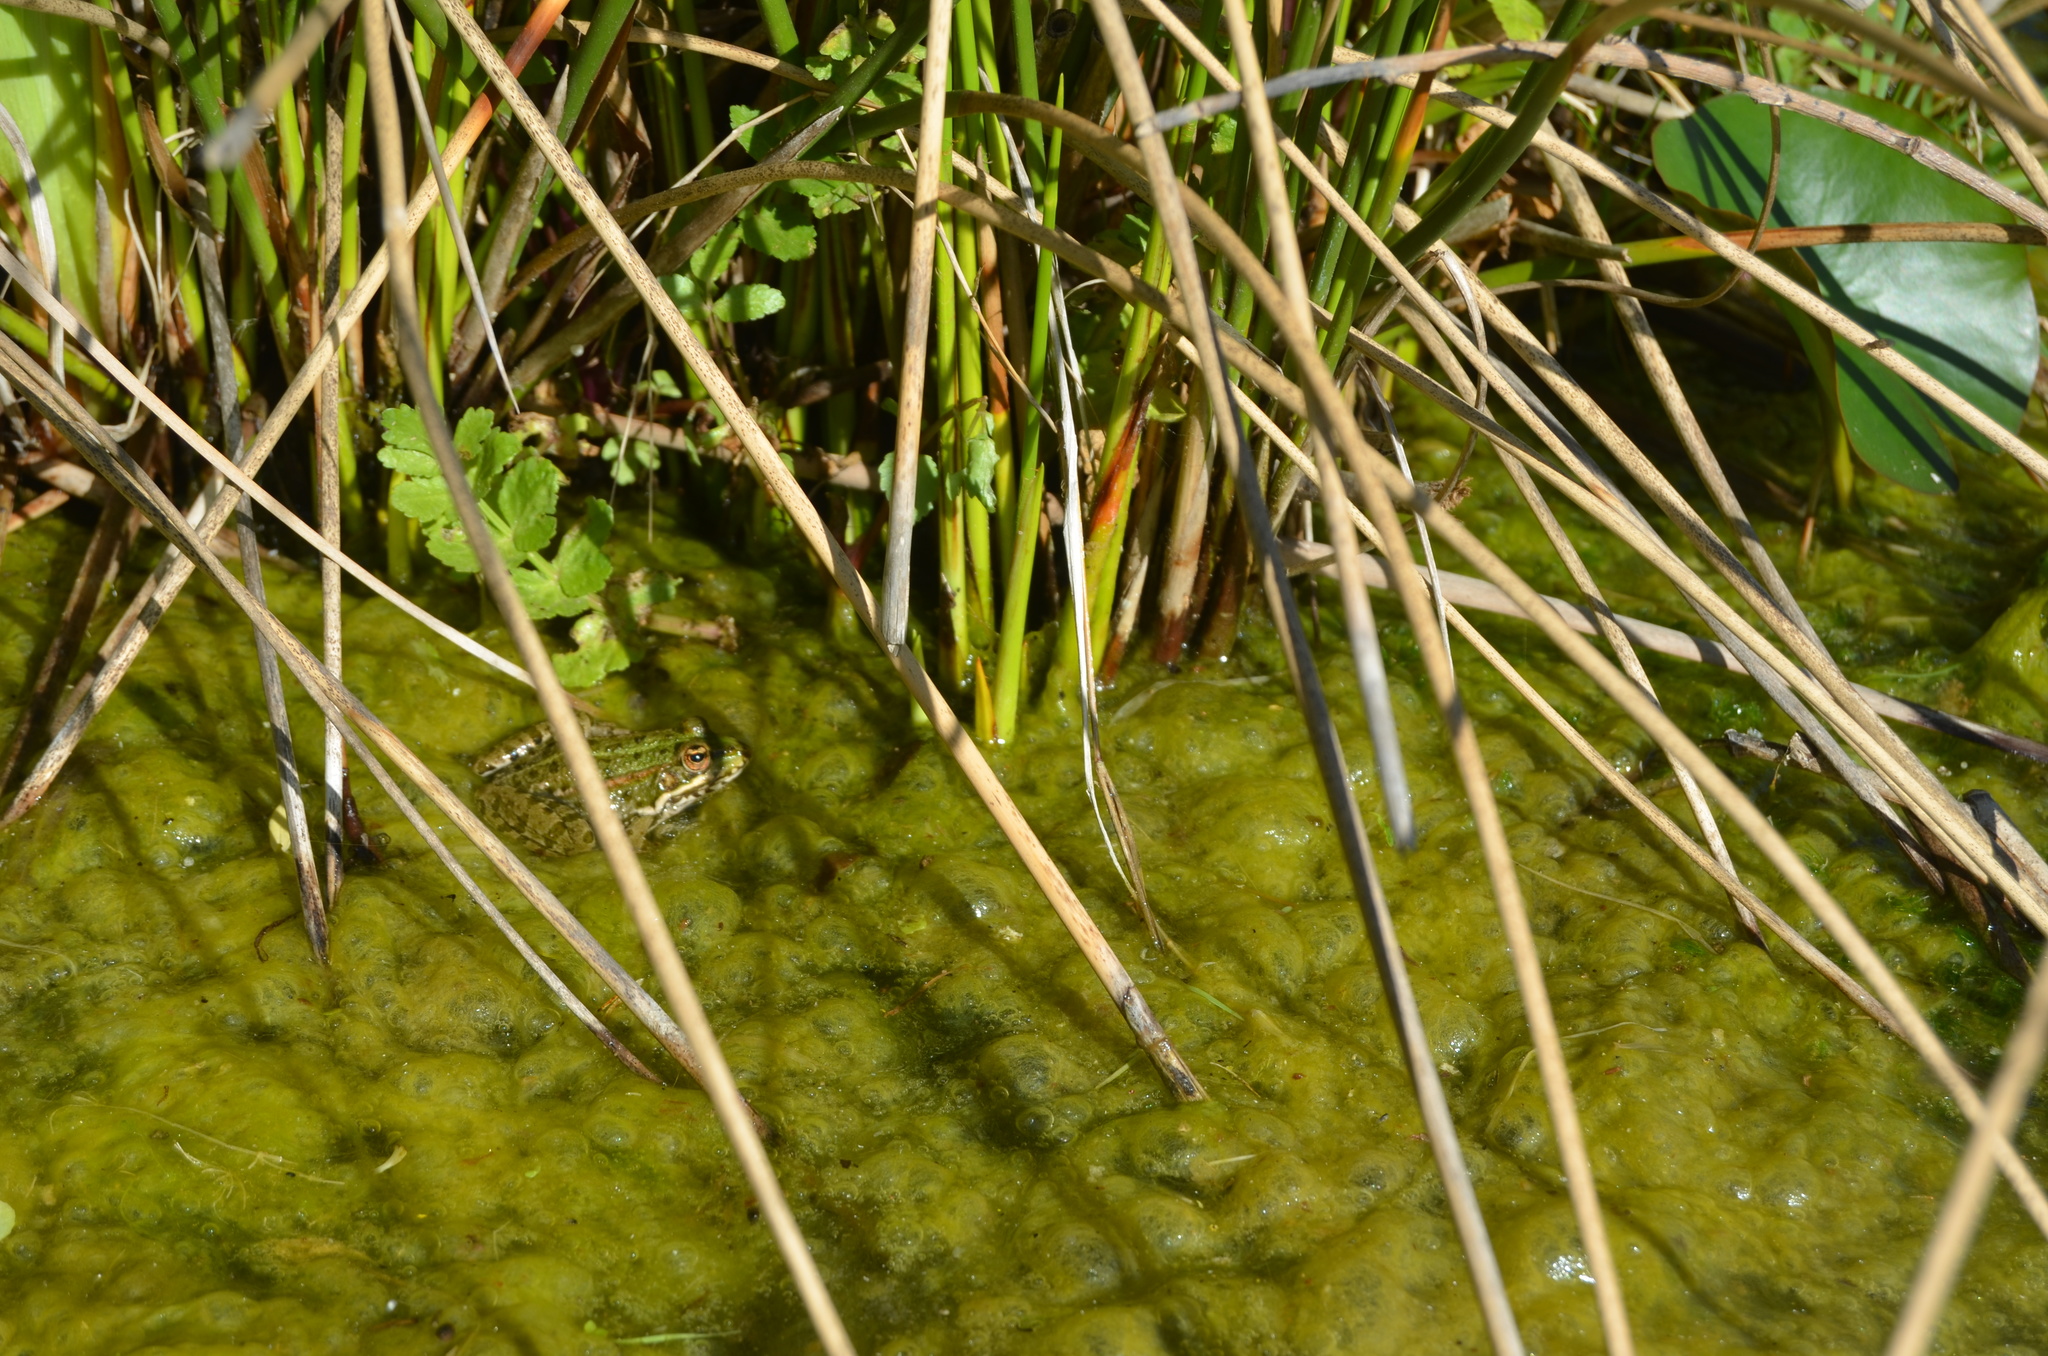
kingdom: Animalia
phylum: Chordata
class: Amphibia
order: Anura
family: Ranidae
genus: Pelophylax
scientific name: Pelophylax perezi
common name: Perez's frog
